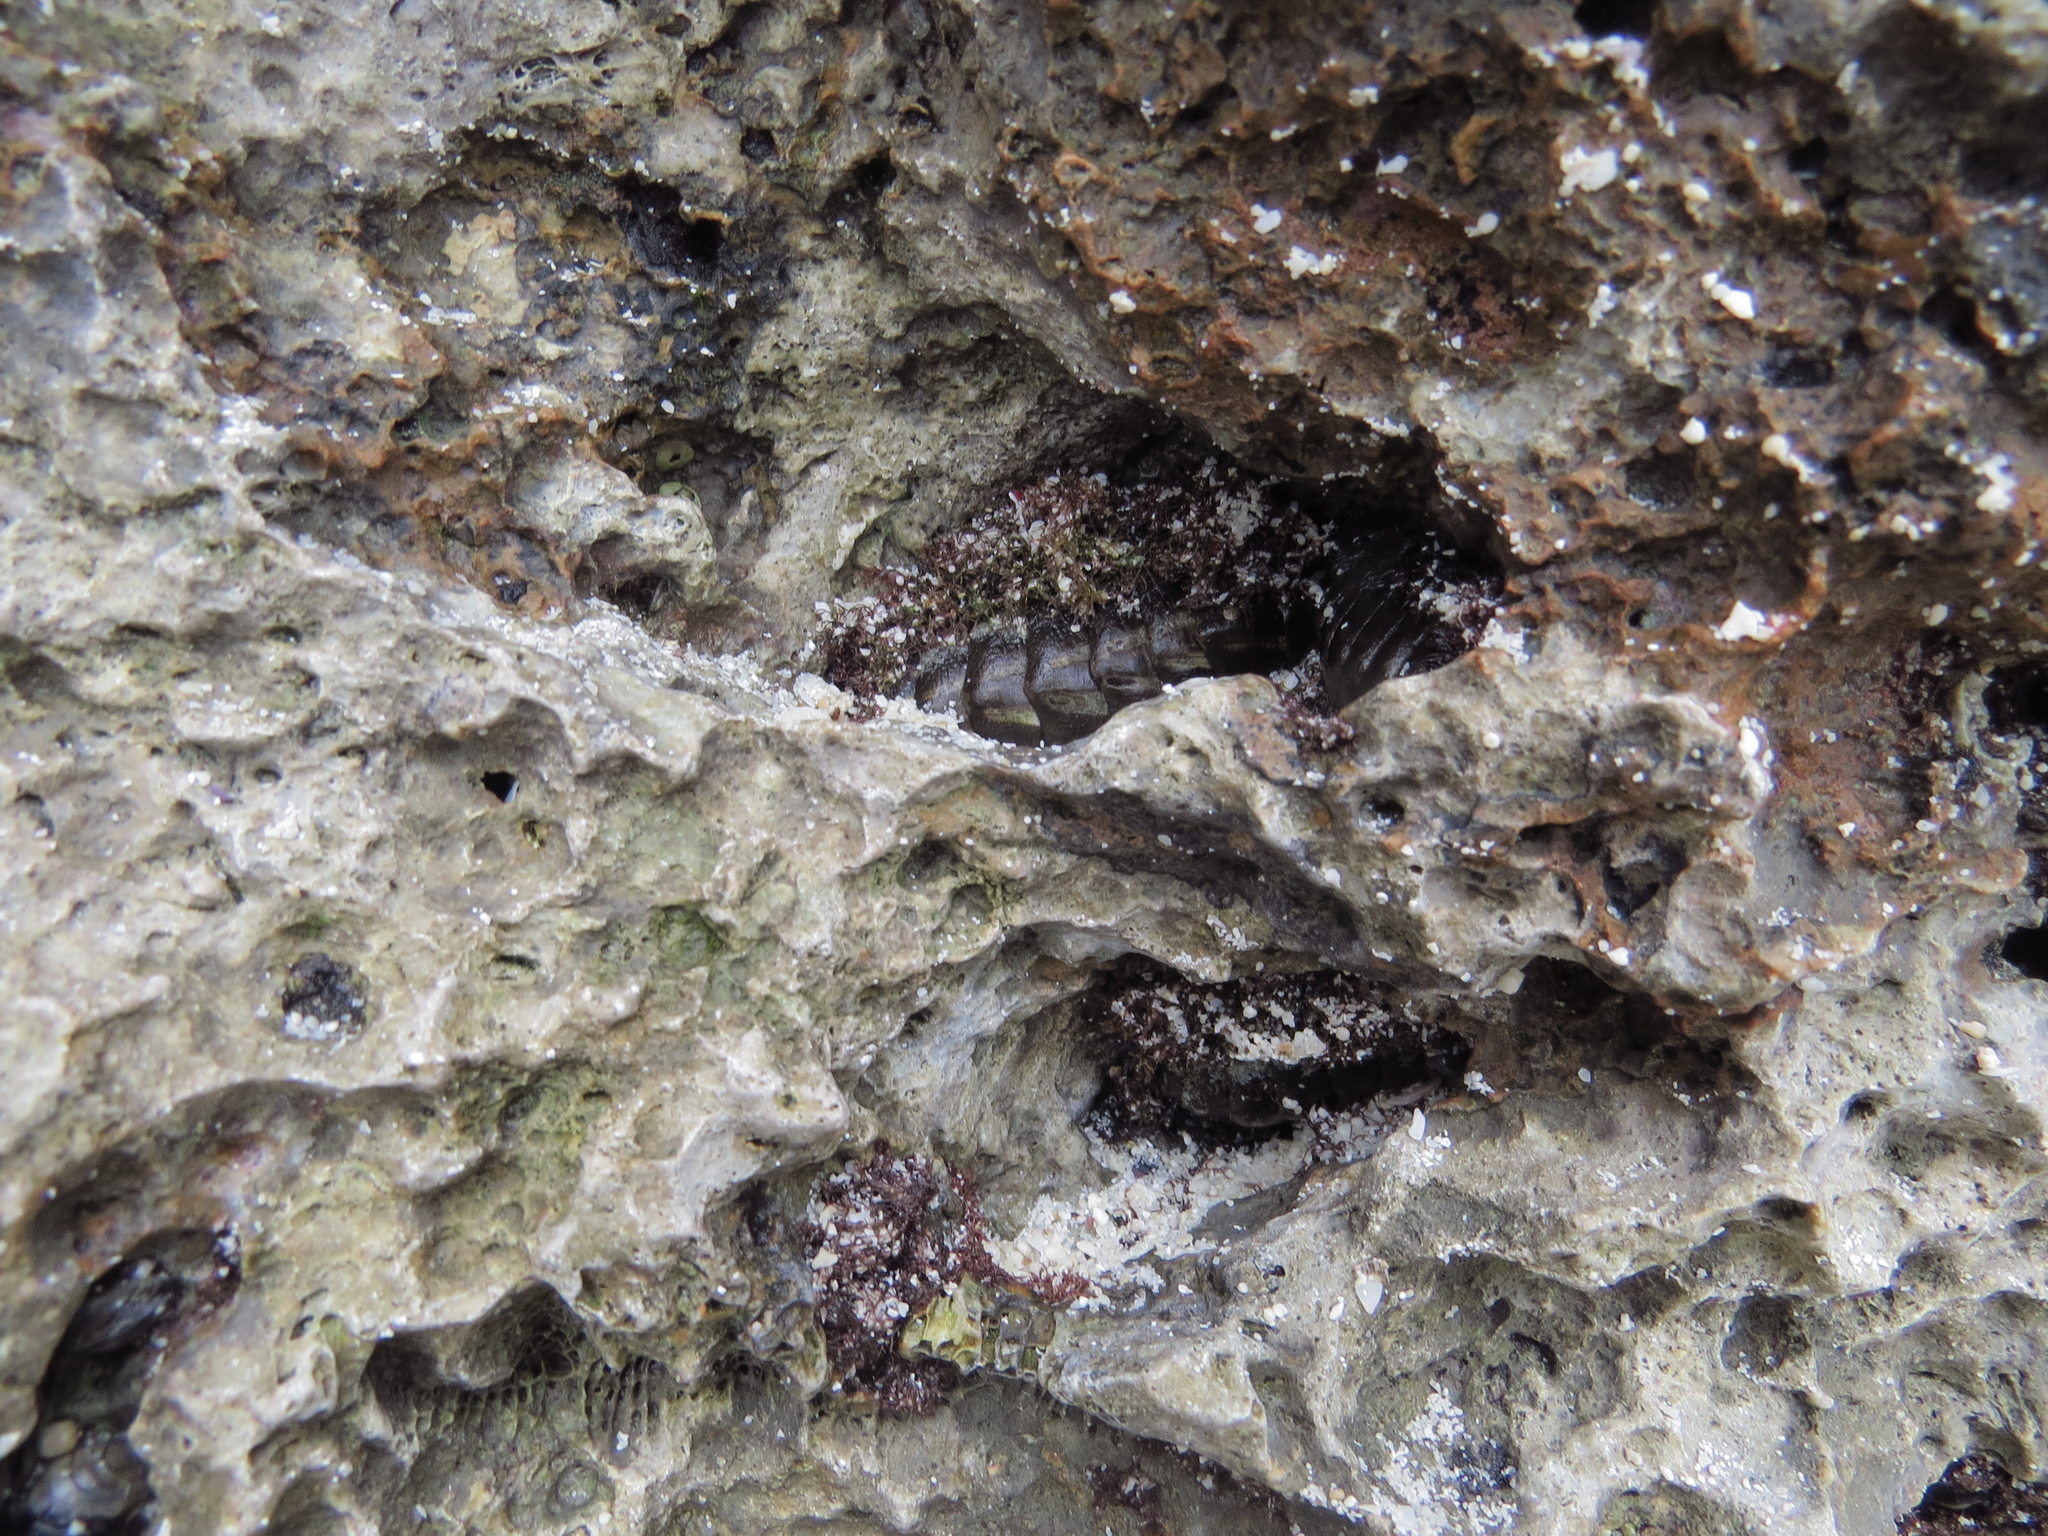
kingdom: Animalia
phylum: Mollusca
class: Polyplacophora
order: Chitonida
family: Chitonidae
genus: Acanthopleura
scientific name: Acanthopleura vaillantii
